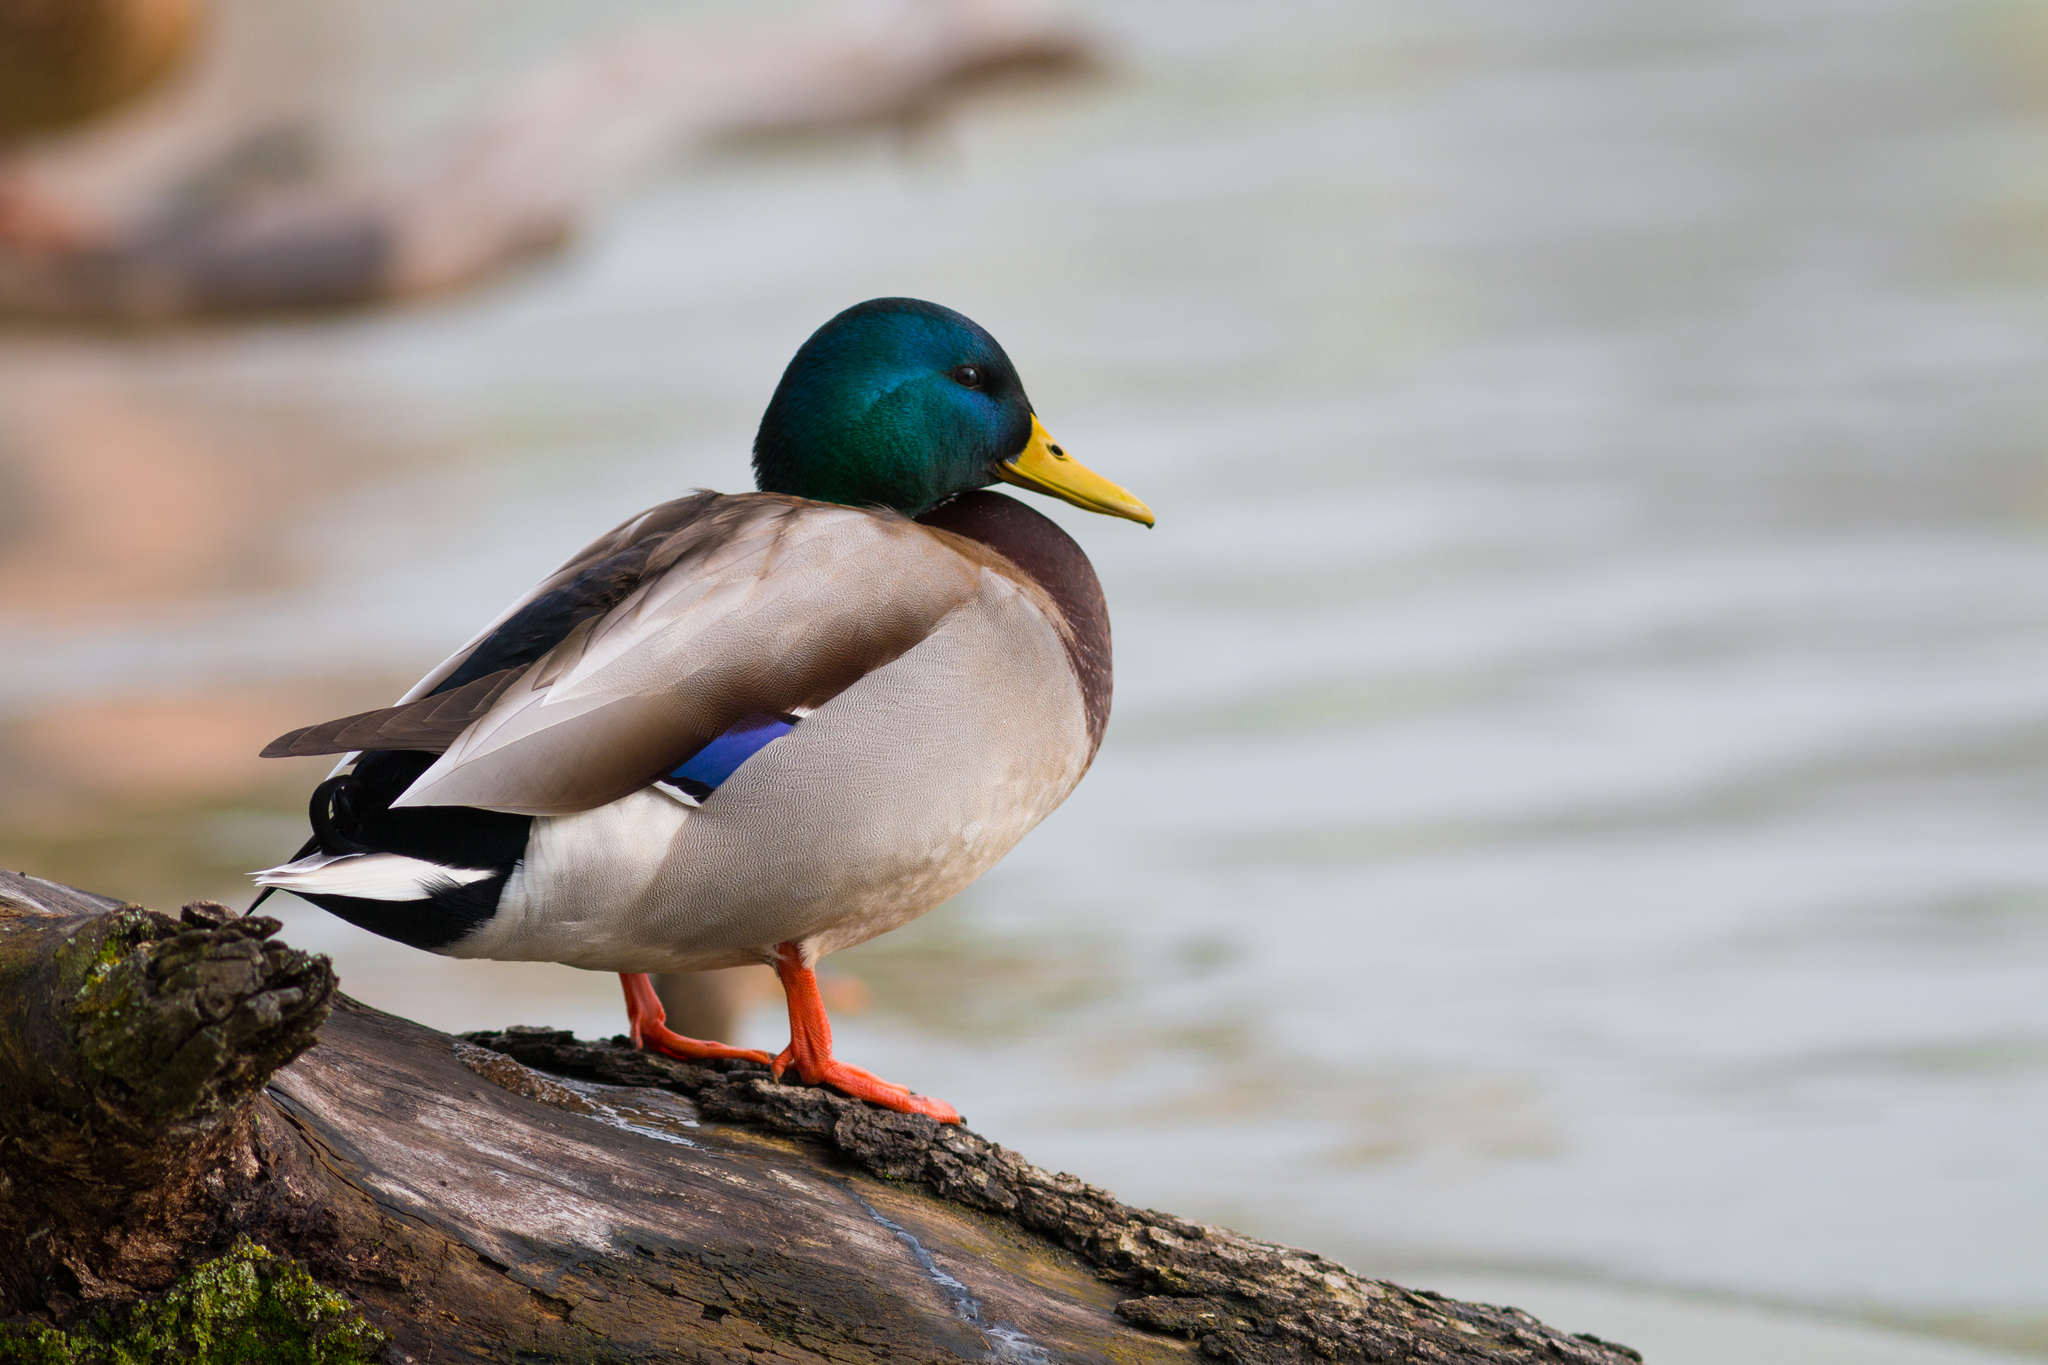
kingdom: Animalia
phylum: Chordata
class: Aves
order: Anseriformes
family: Anatidae
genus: Anas
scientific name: Anas platyrhynchos
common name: Mallard
